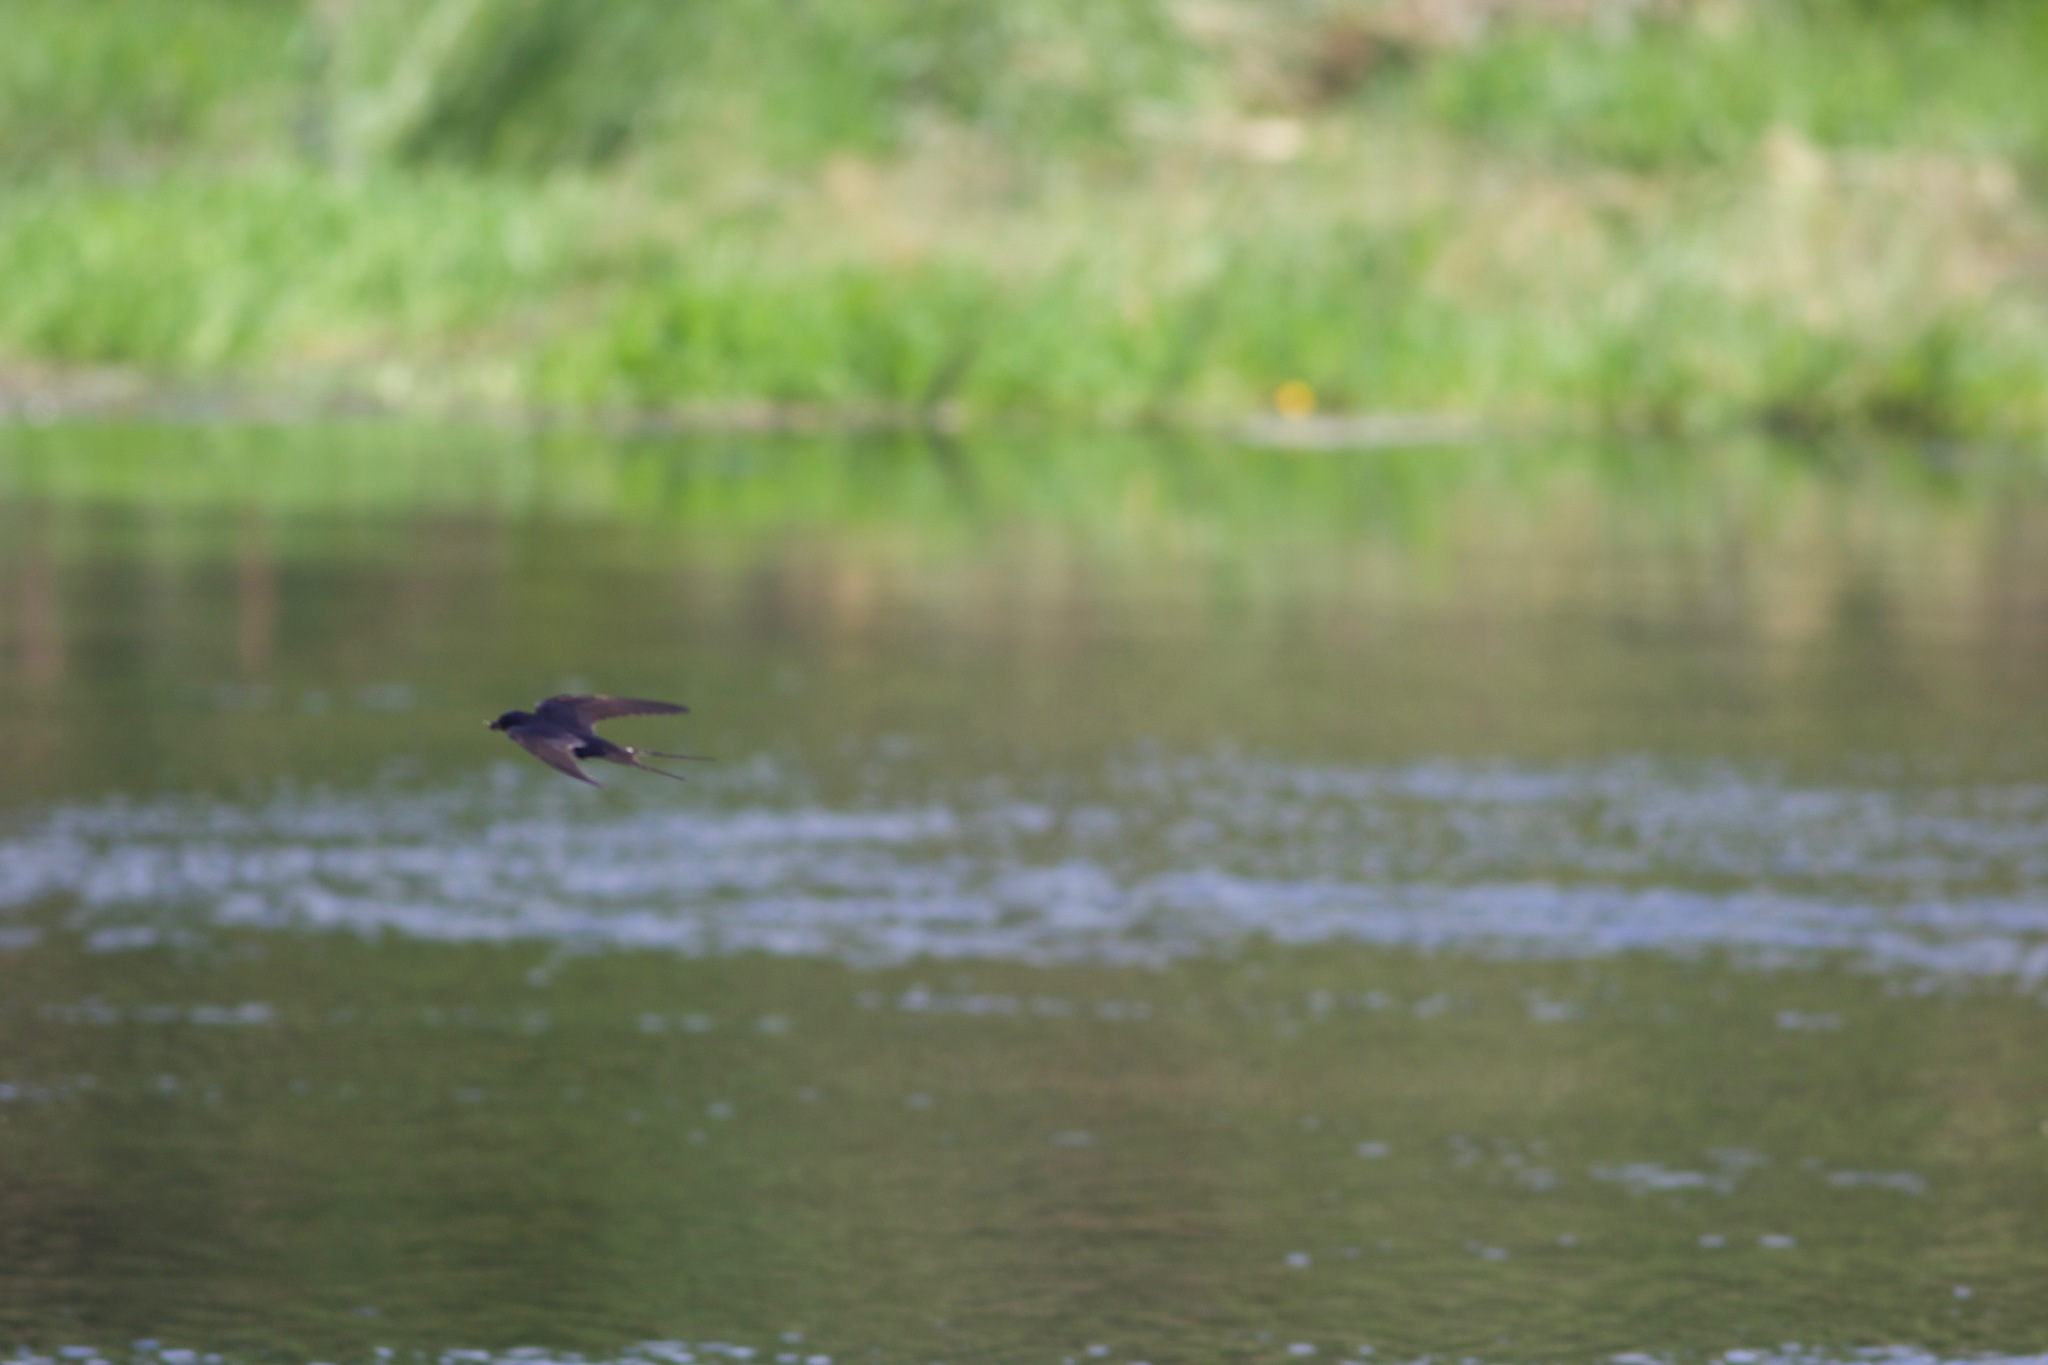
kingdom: Animalia
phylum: Chordata
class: Aves
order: Passeriformes
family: Hirundinidae
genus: Hirundo
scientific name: Hirundo rustica
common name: Barn swallow
